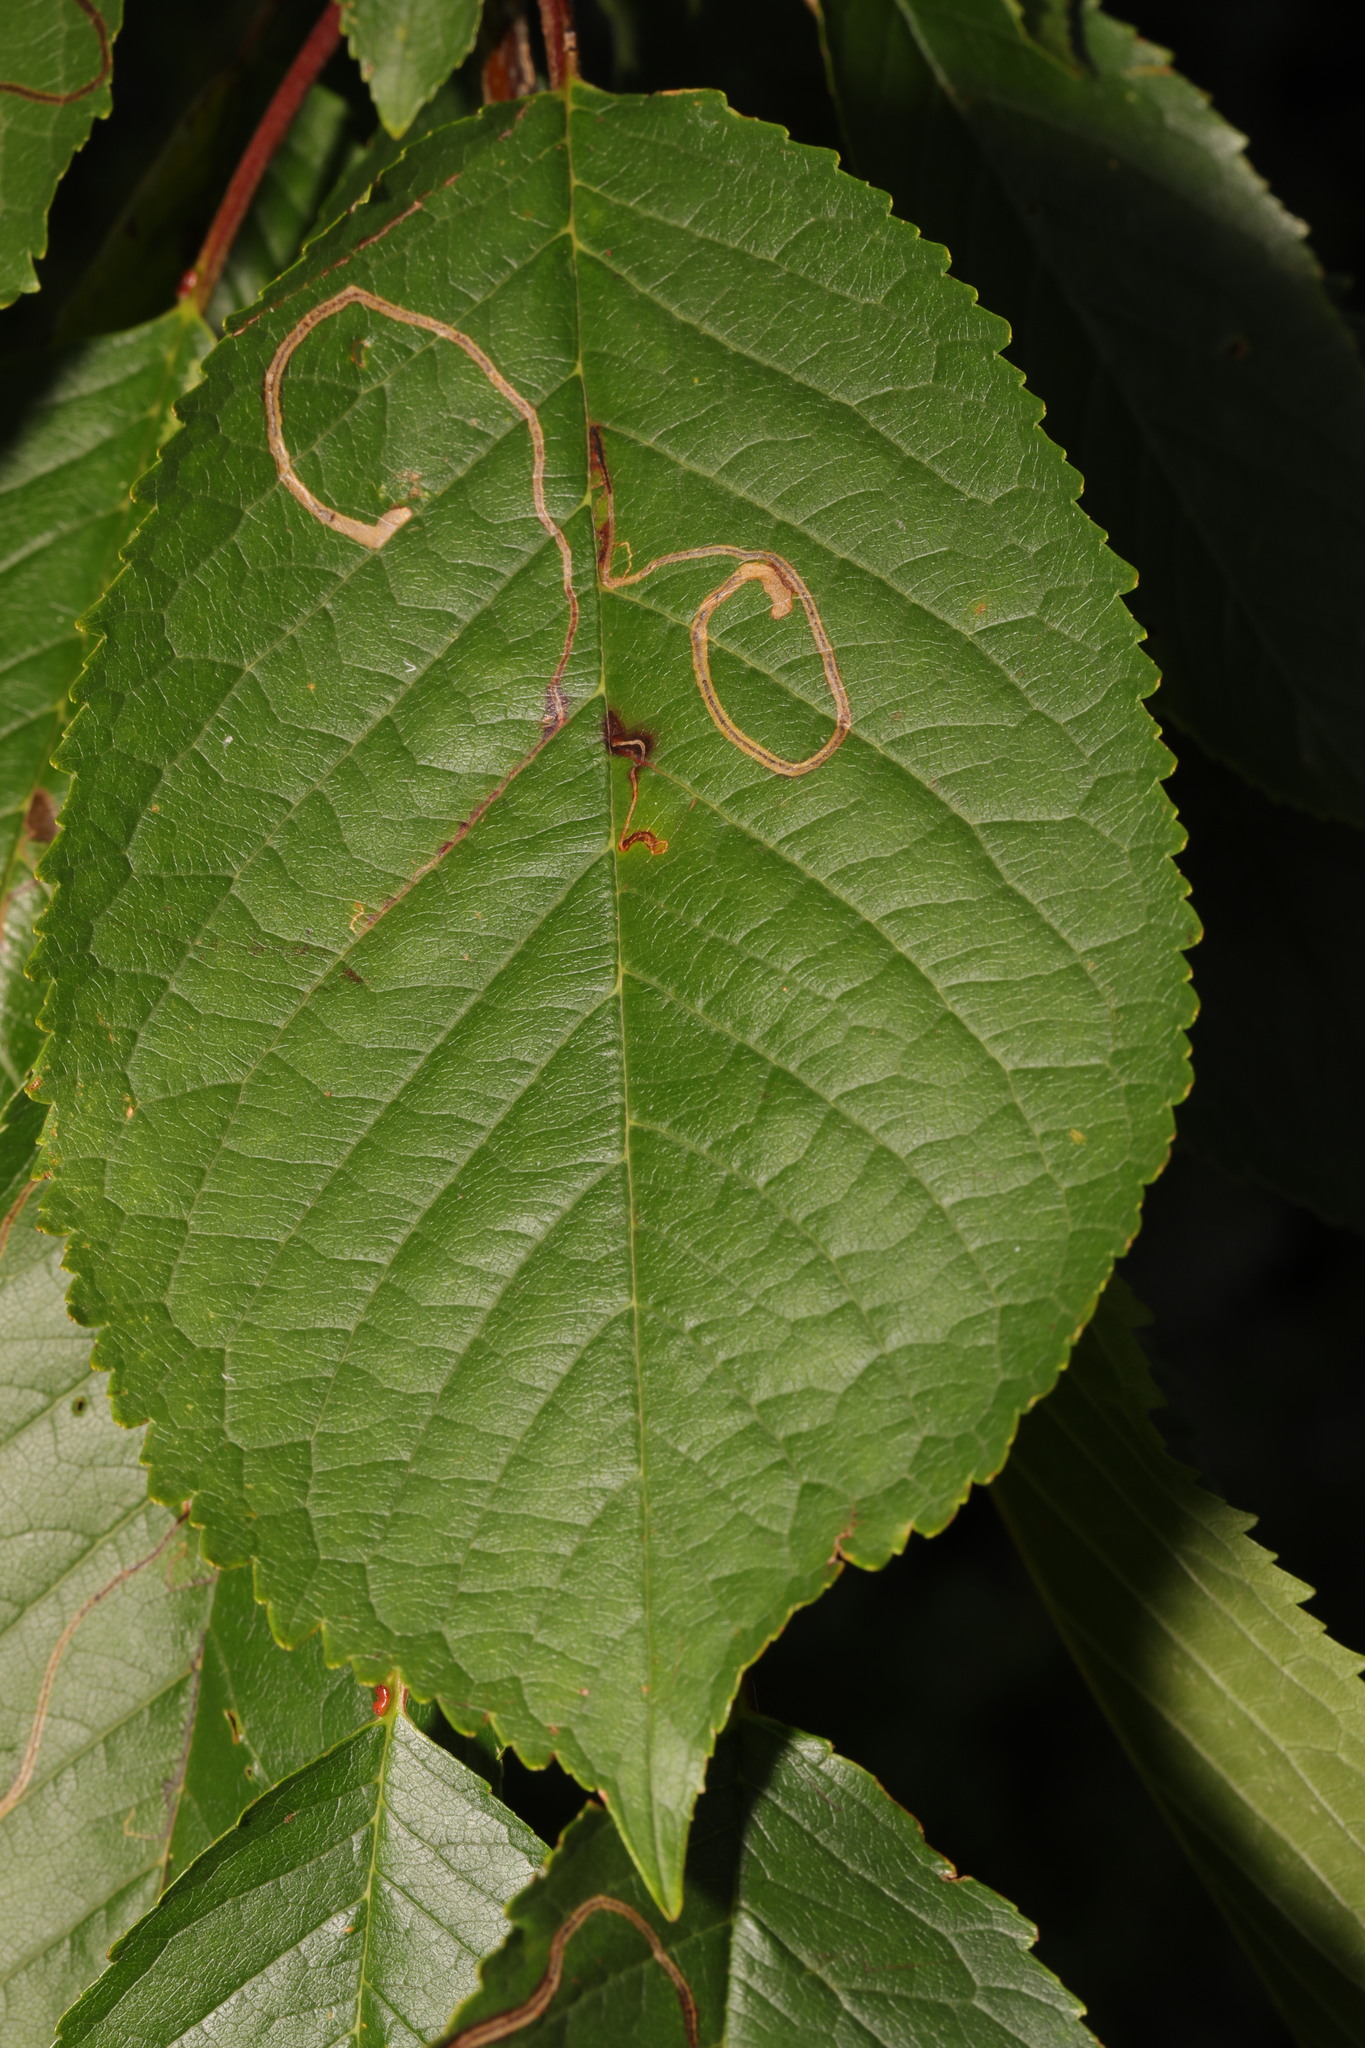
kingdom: Animalia
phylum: Arthropoda
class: Insecta
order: Lepidoptera
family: Lyonetiidae
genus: Lyonetia
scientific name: Lyonetia clerkella
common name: Apple leaf miner
